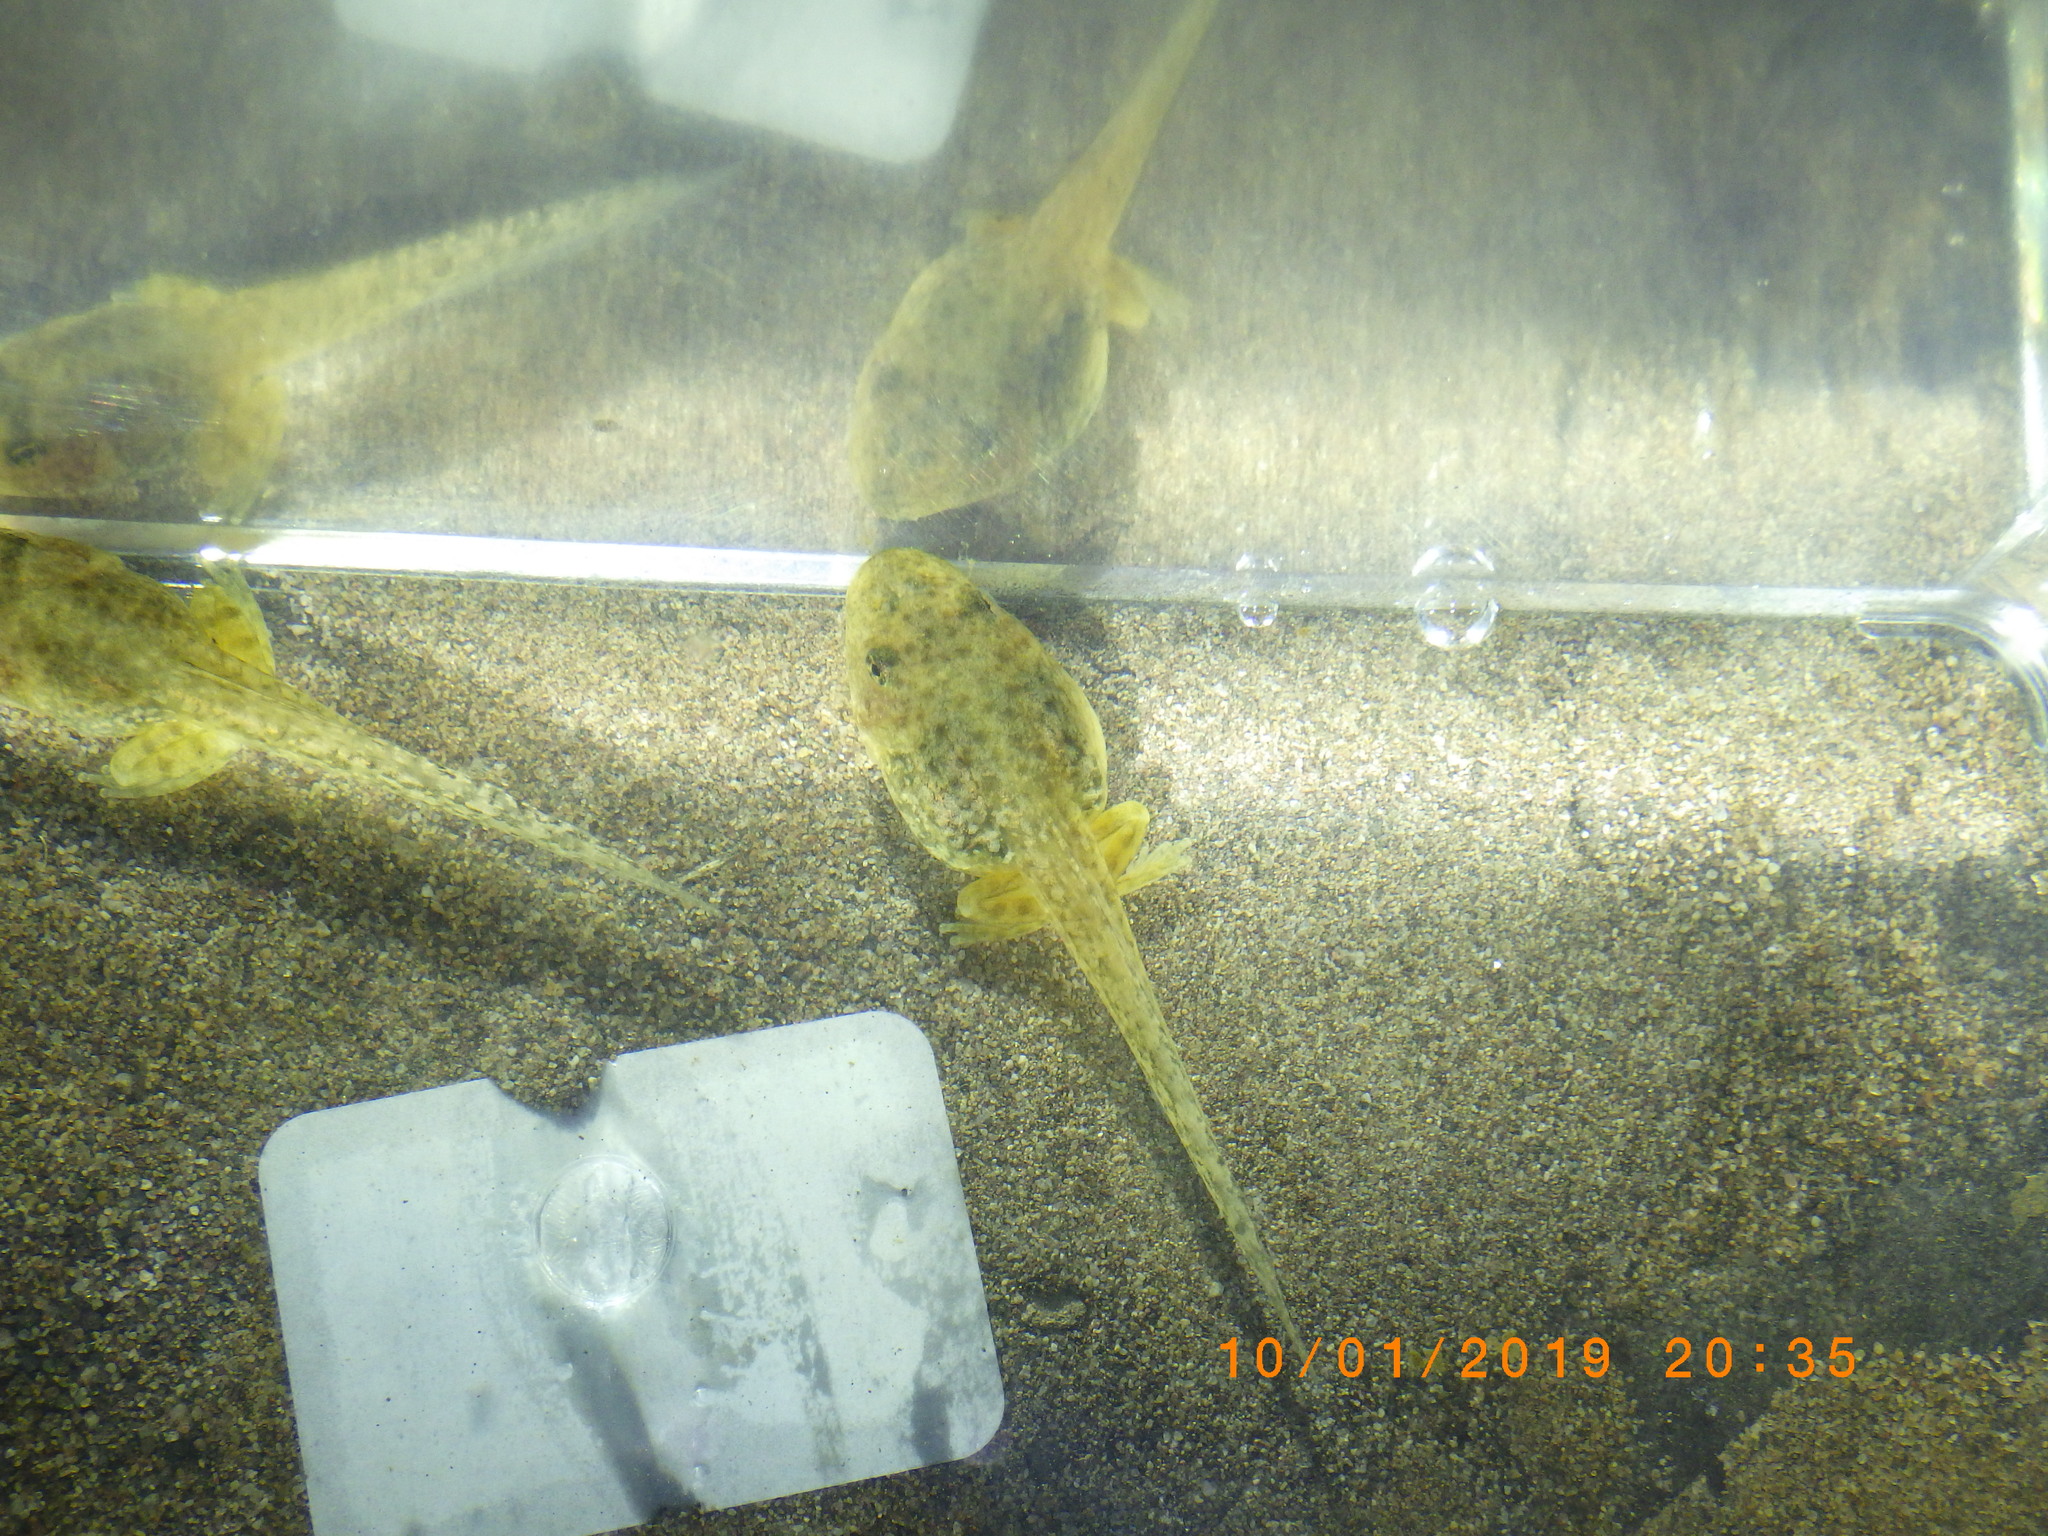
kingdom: Animalia
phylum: Chordata
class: Amphibia
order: Anura
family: Hylidae
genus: Pseudacris
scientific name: Pseudacris cadaverina
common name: California chorus frog
